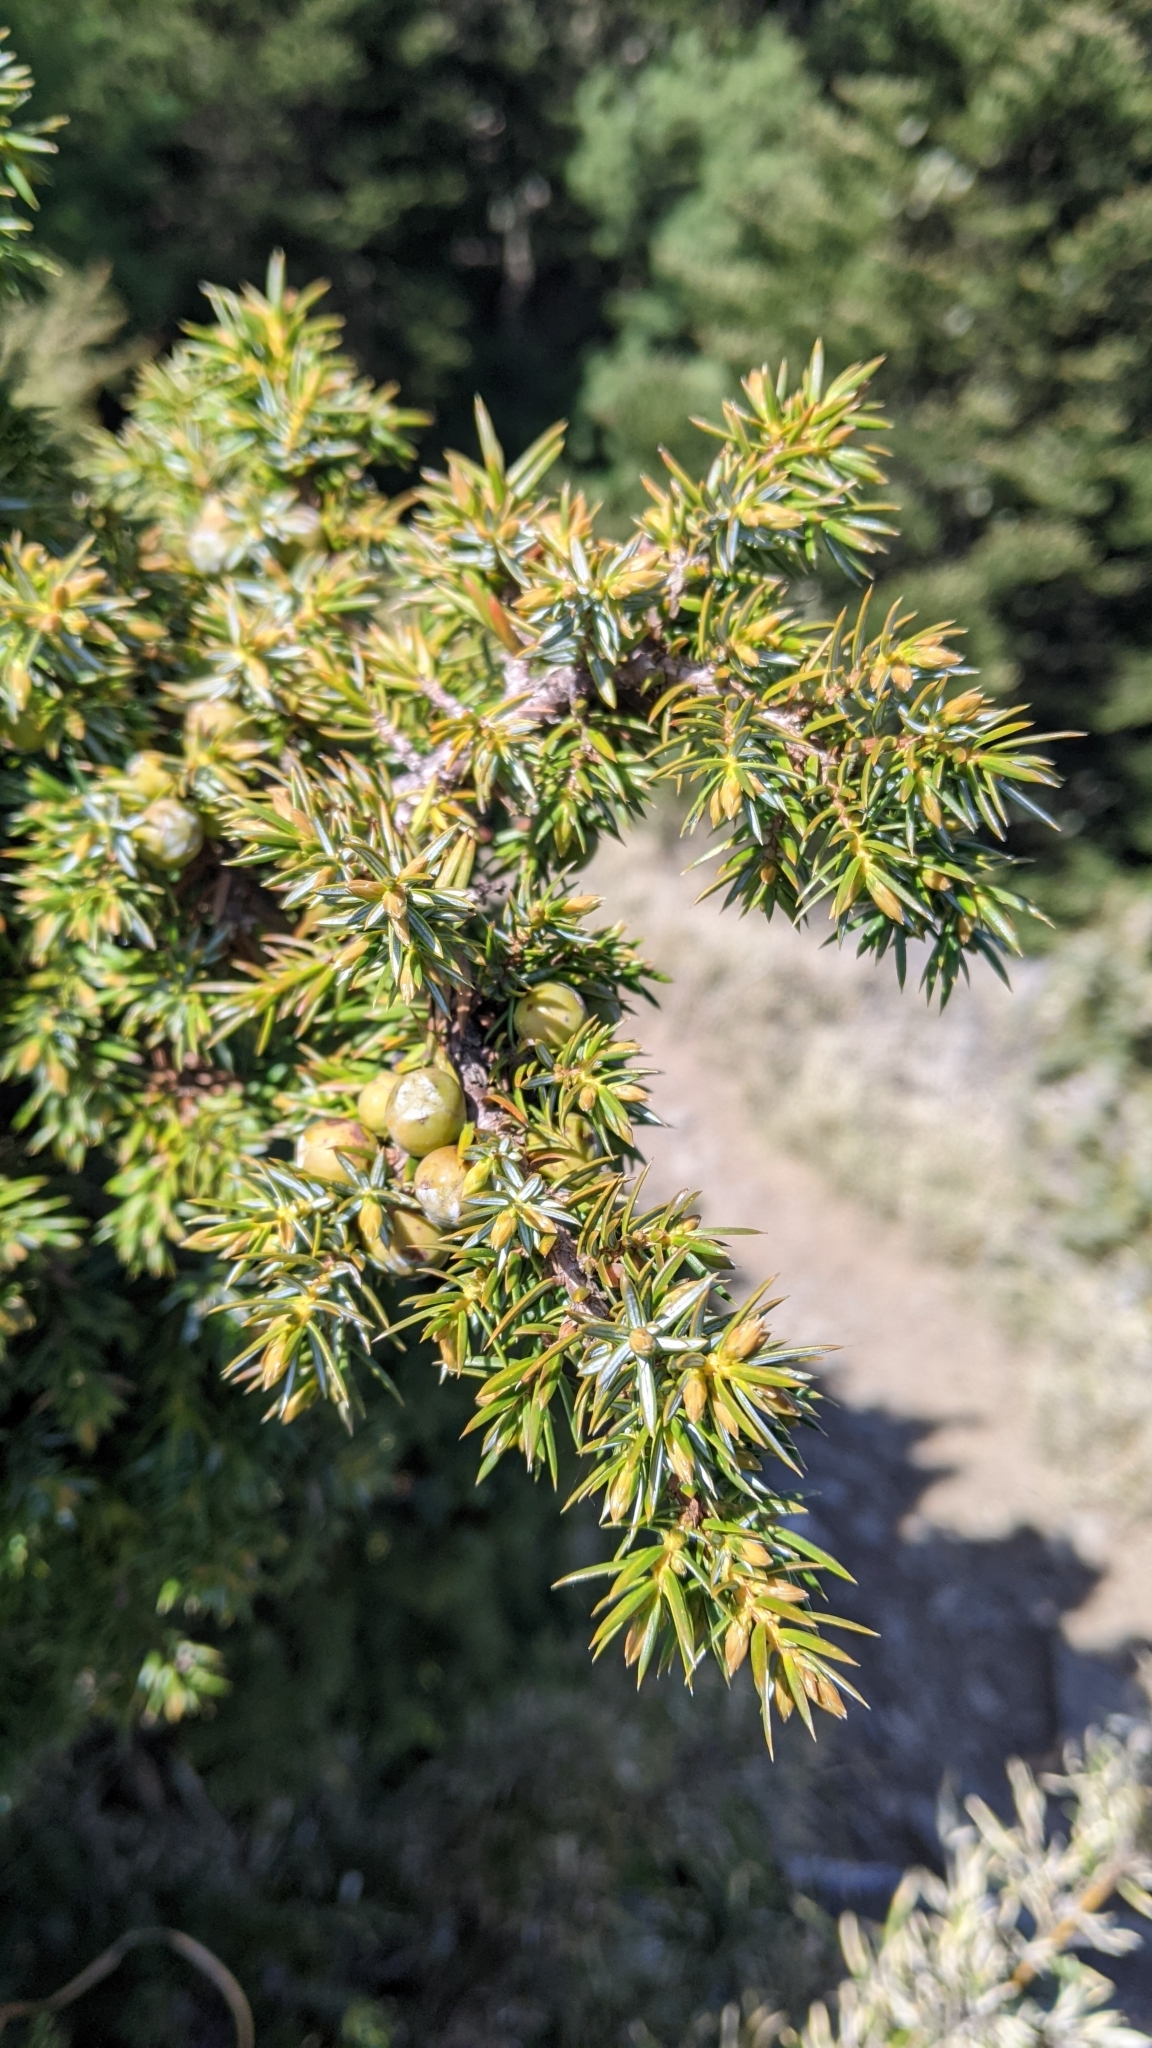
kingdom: Plantae
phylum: Tracheophyta
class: Pinopsida
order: Pinales
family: Cupressaceae
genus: Juniperus
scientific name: Juniperus formosana
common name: Formosan juniper
